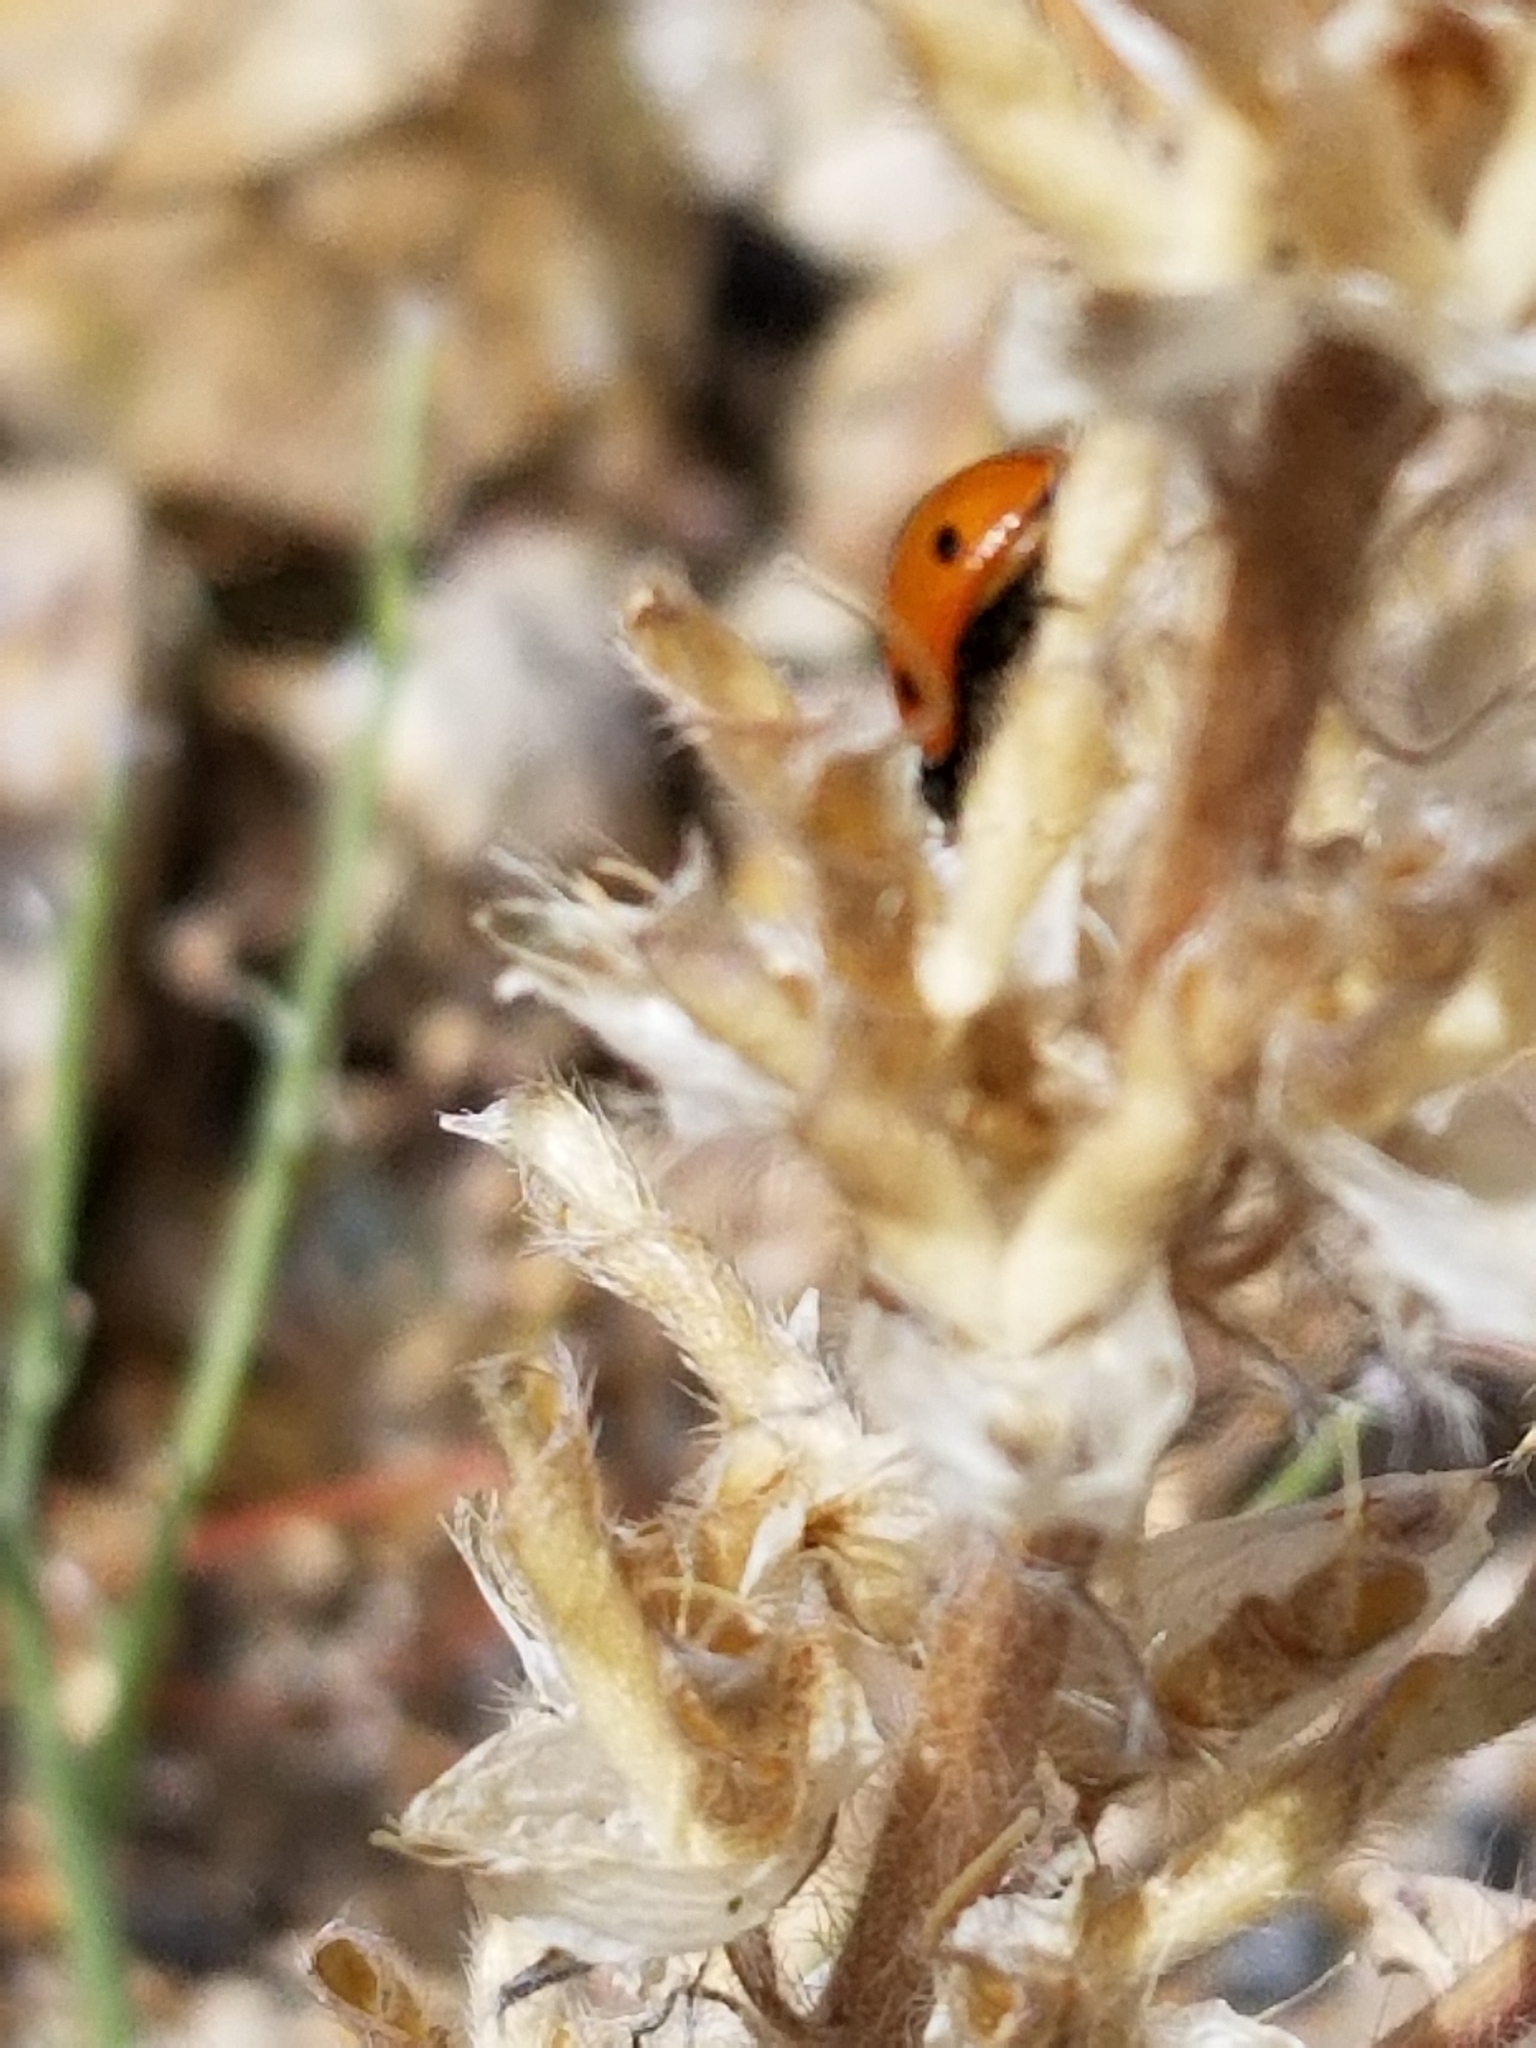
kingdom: Animalia
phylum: Arthropoda
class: Insecta
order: Coleoptera
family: Coccinellidae
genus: Coccinella
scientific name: Coccinella septempunctata
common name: Sevenspotted lady beetle
